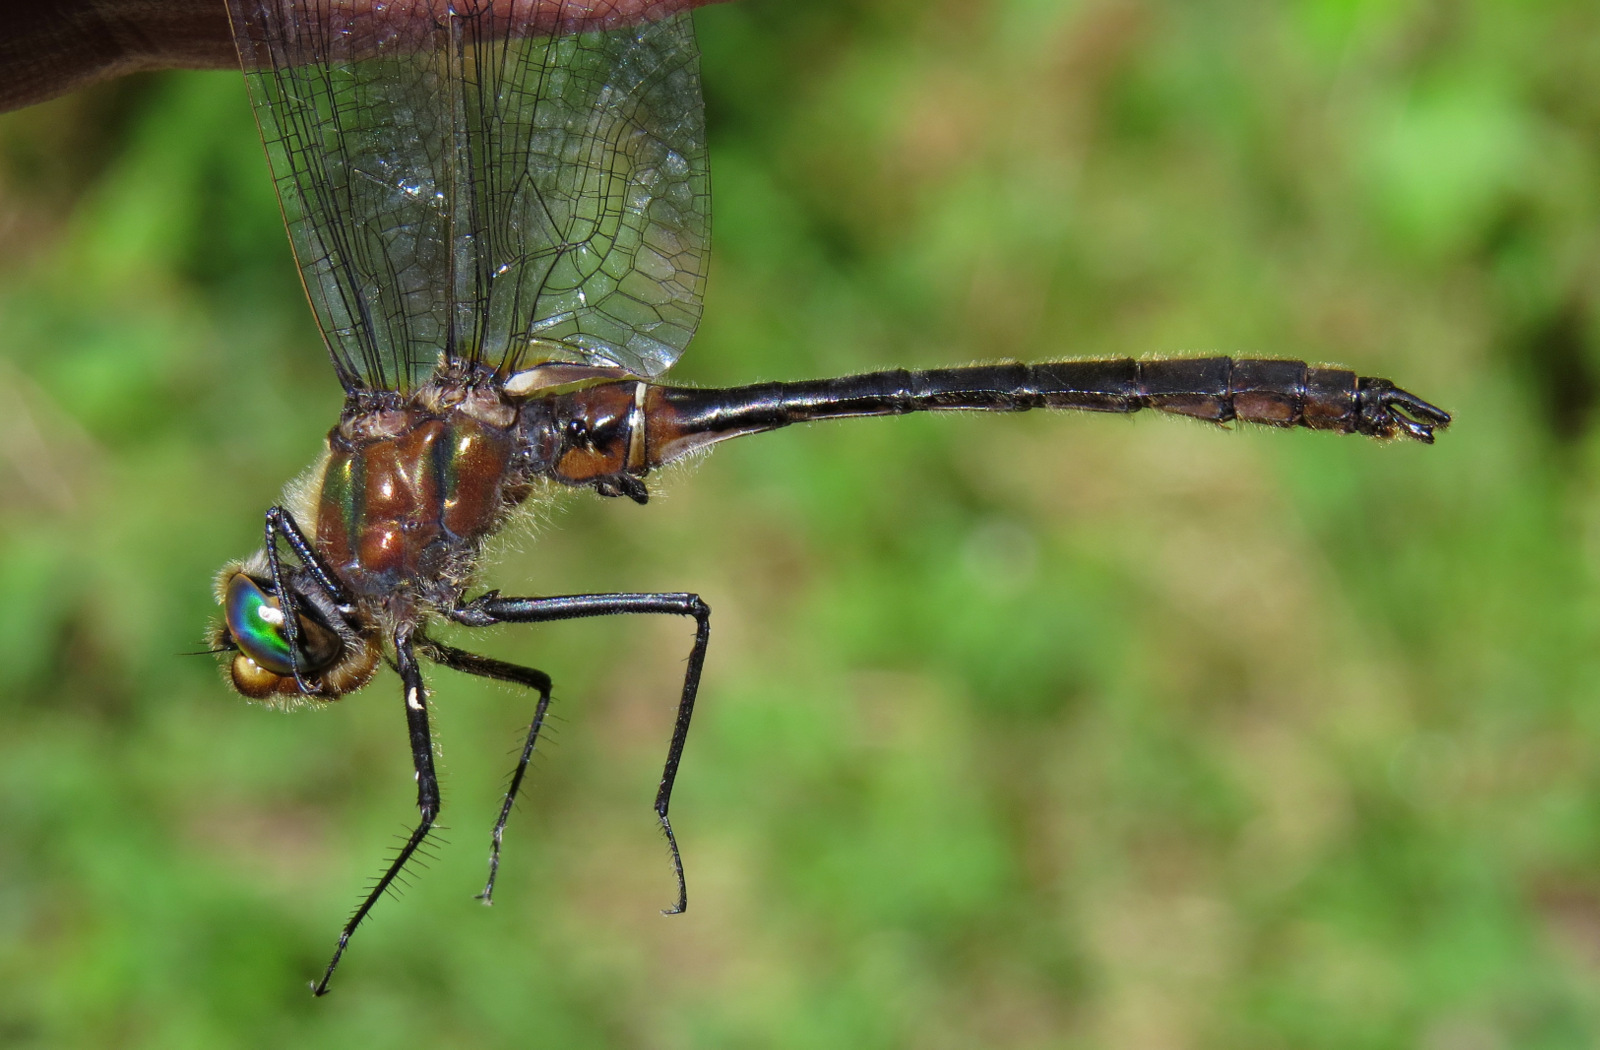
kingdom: Animalia
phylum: Arthropoda
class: Insecta
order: Odonata
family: Corduliidae
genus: Cordulia
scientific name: Cordulia shurtleffii
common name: American emerald
